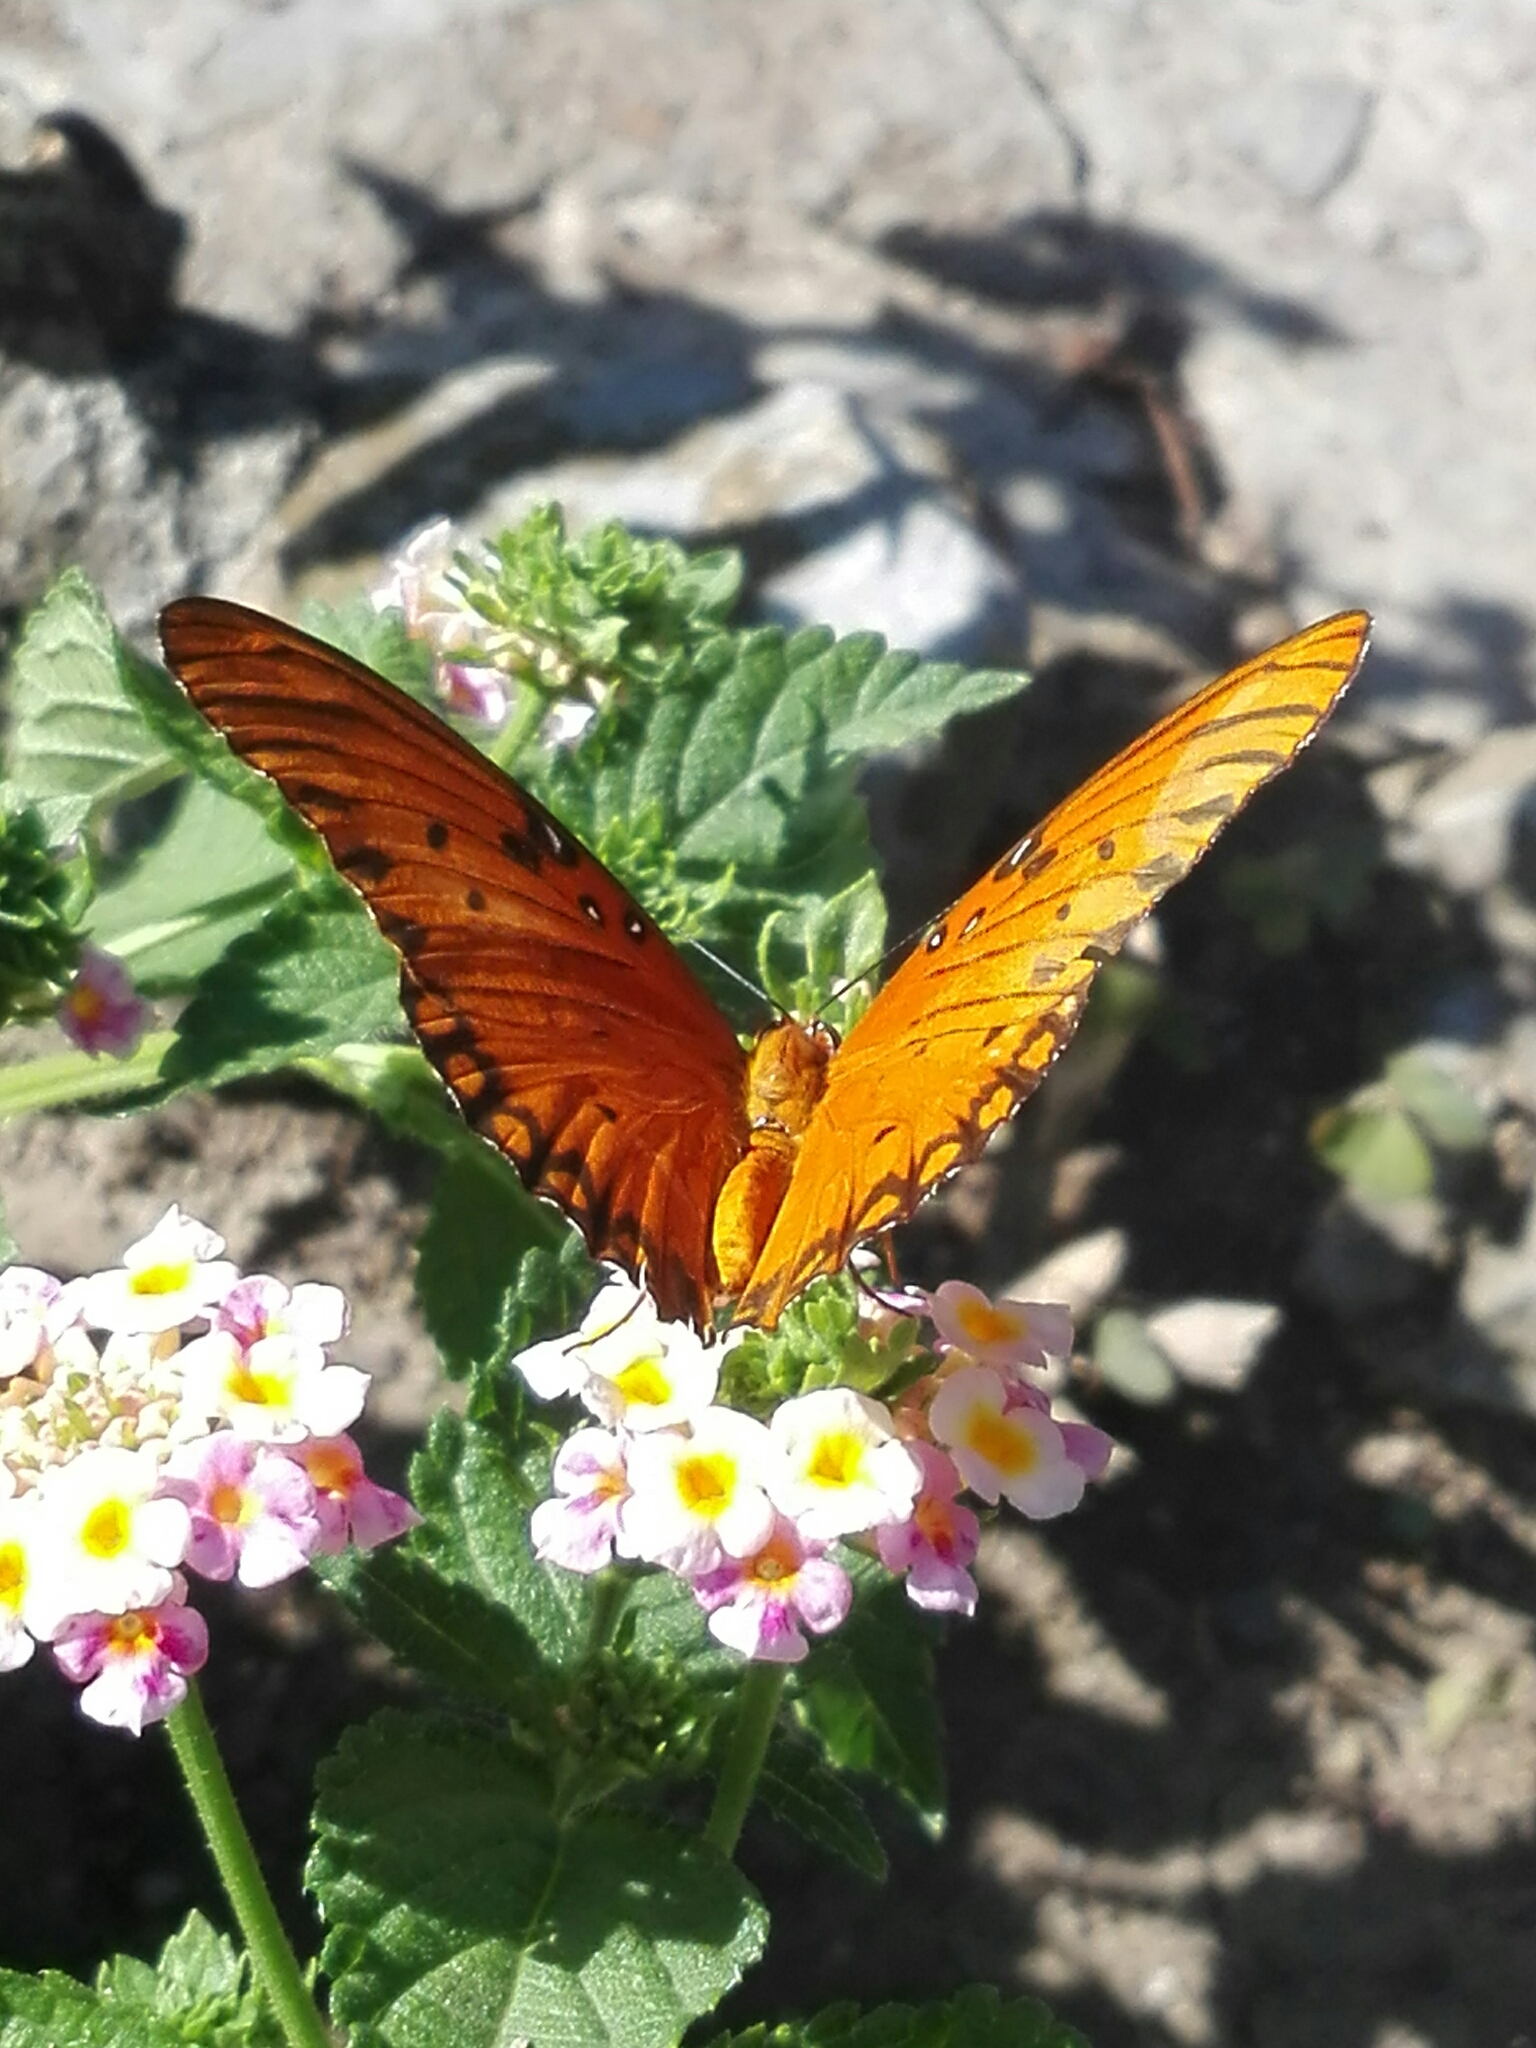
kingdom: Animalia
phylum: Arthropoda
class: Insecta
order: Lepidoptera
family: Nymphalidae
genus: Dione
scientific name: Dione vanillae
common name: Gulf fritillary
